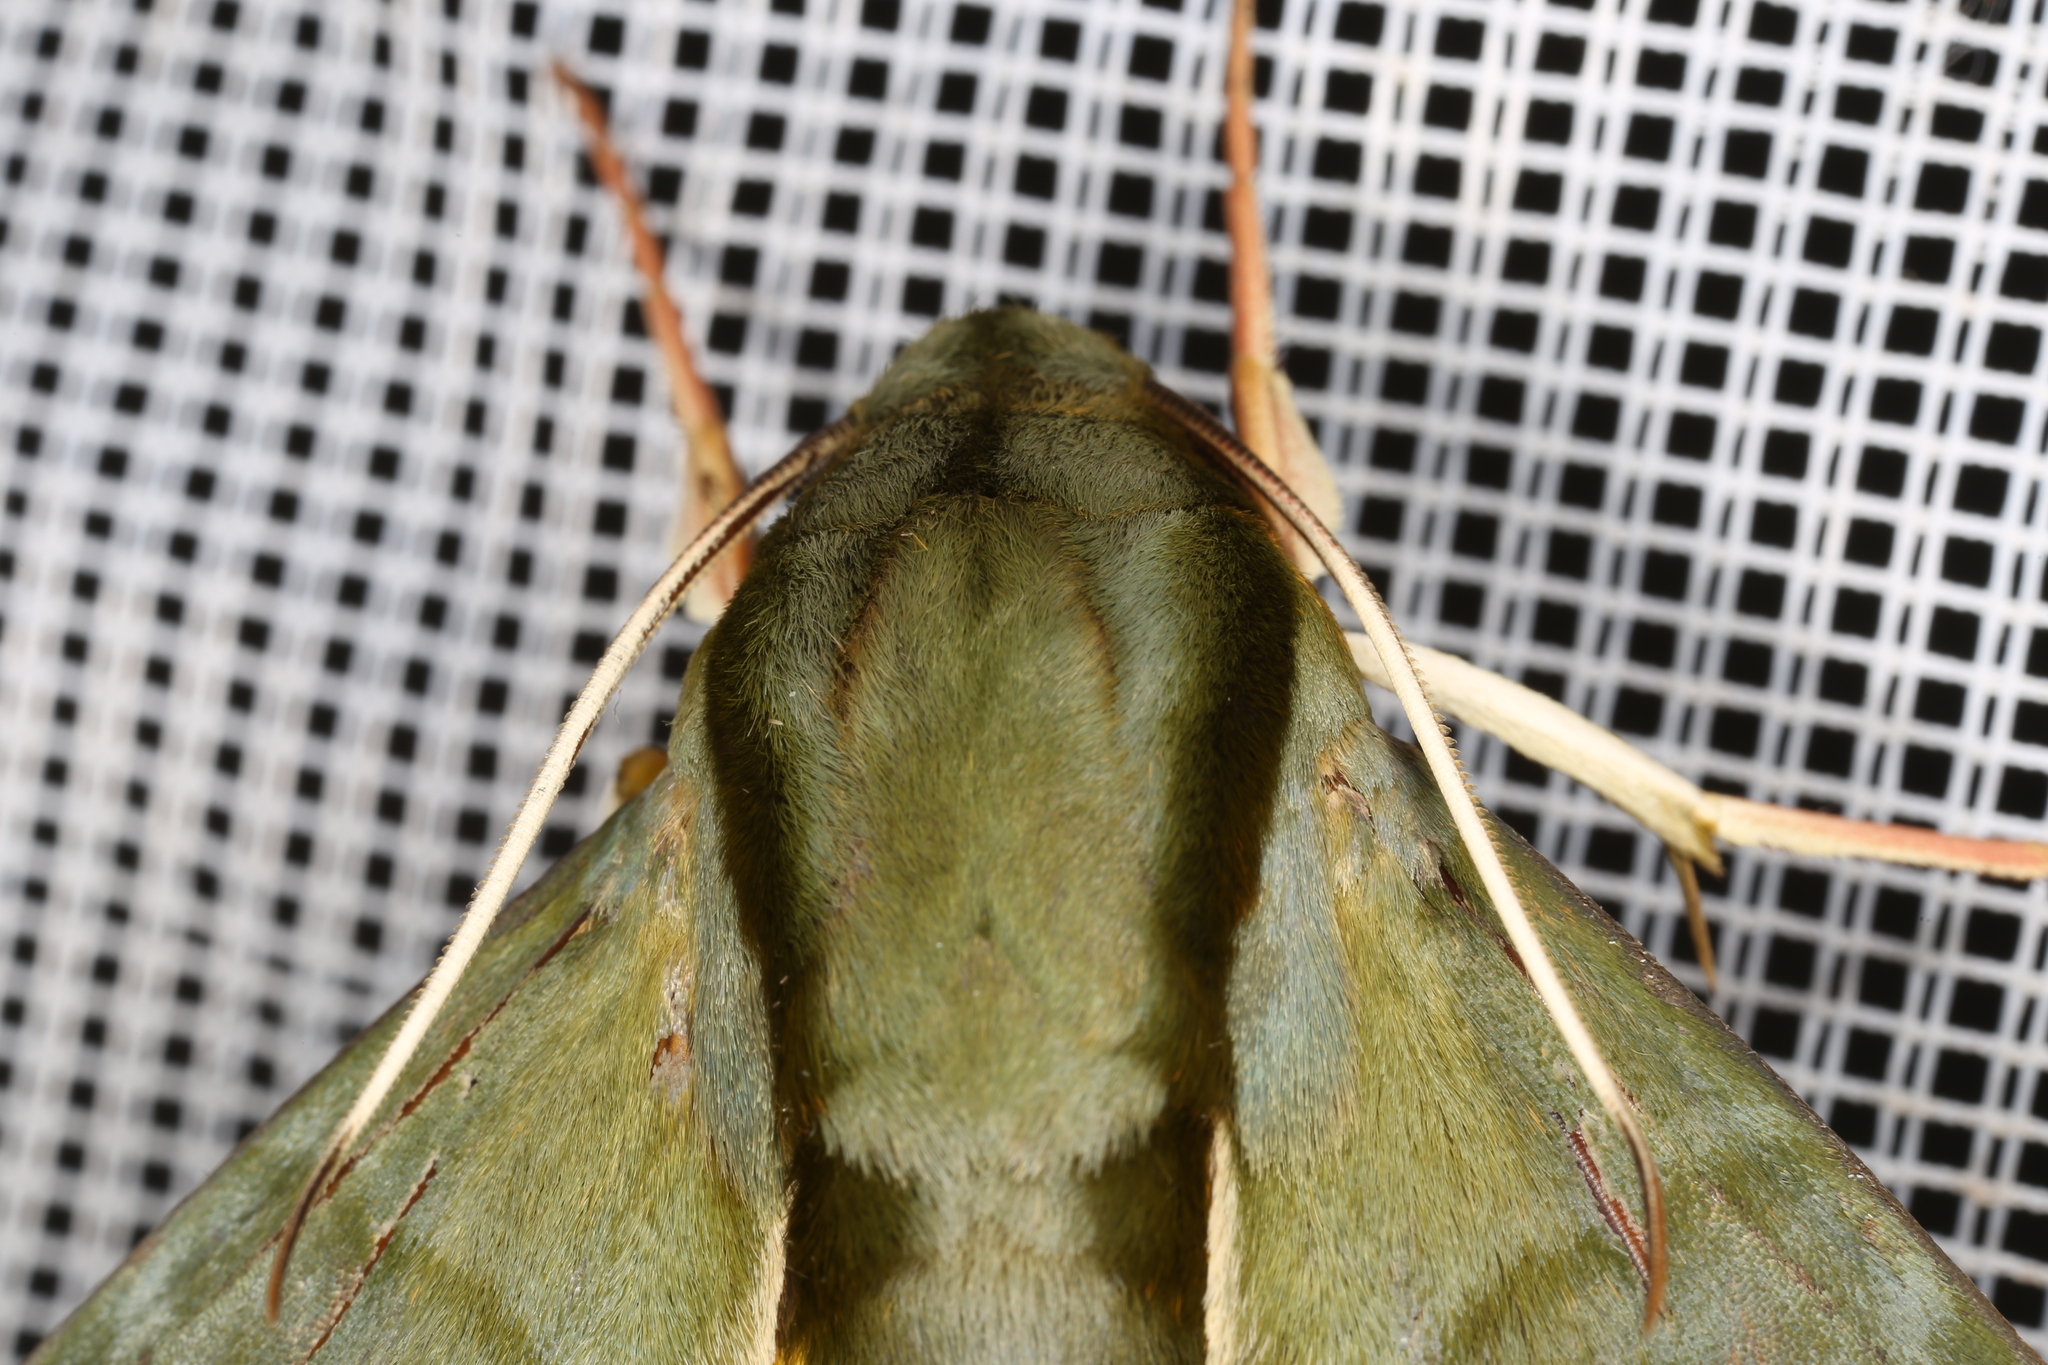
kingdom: Animalia
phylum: Arthropoda
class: Insecta
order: Lepidoptera
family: Sphingidae
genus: Eumorpha
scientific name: Eumorpha phorbas
